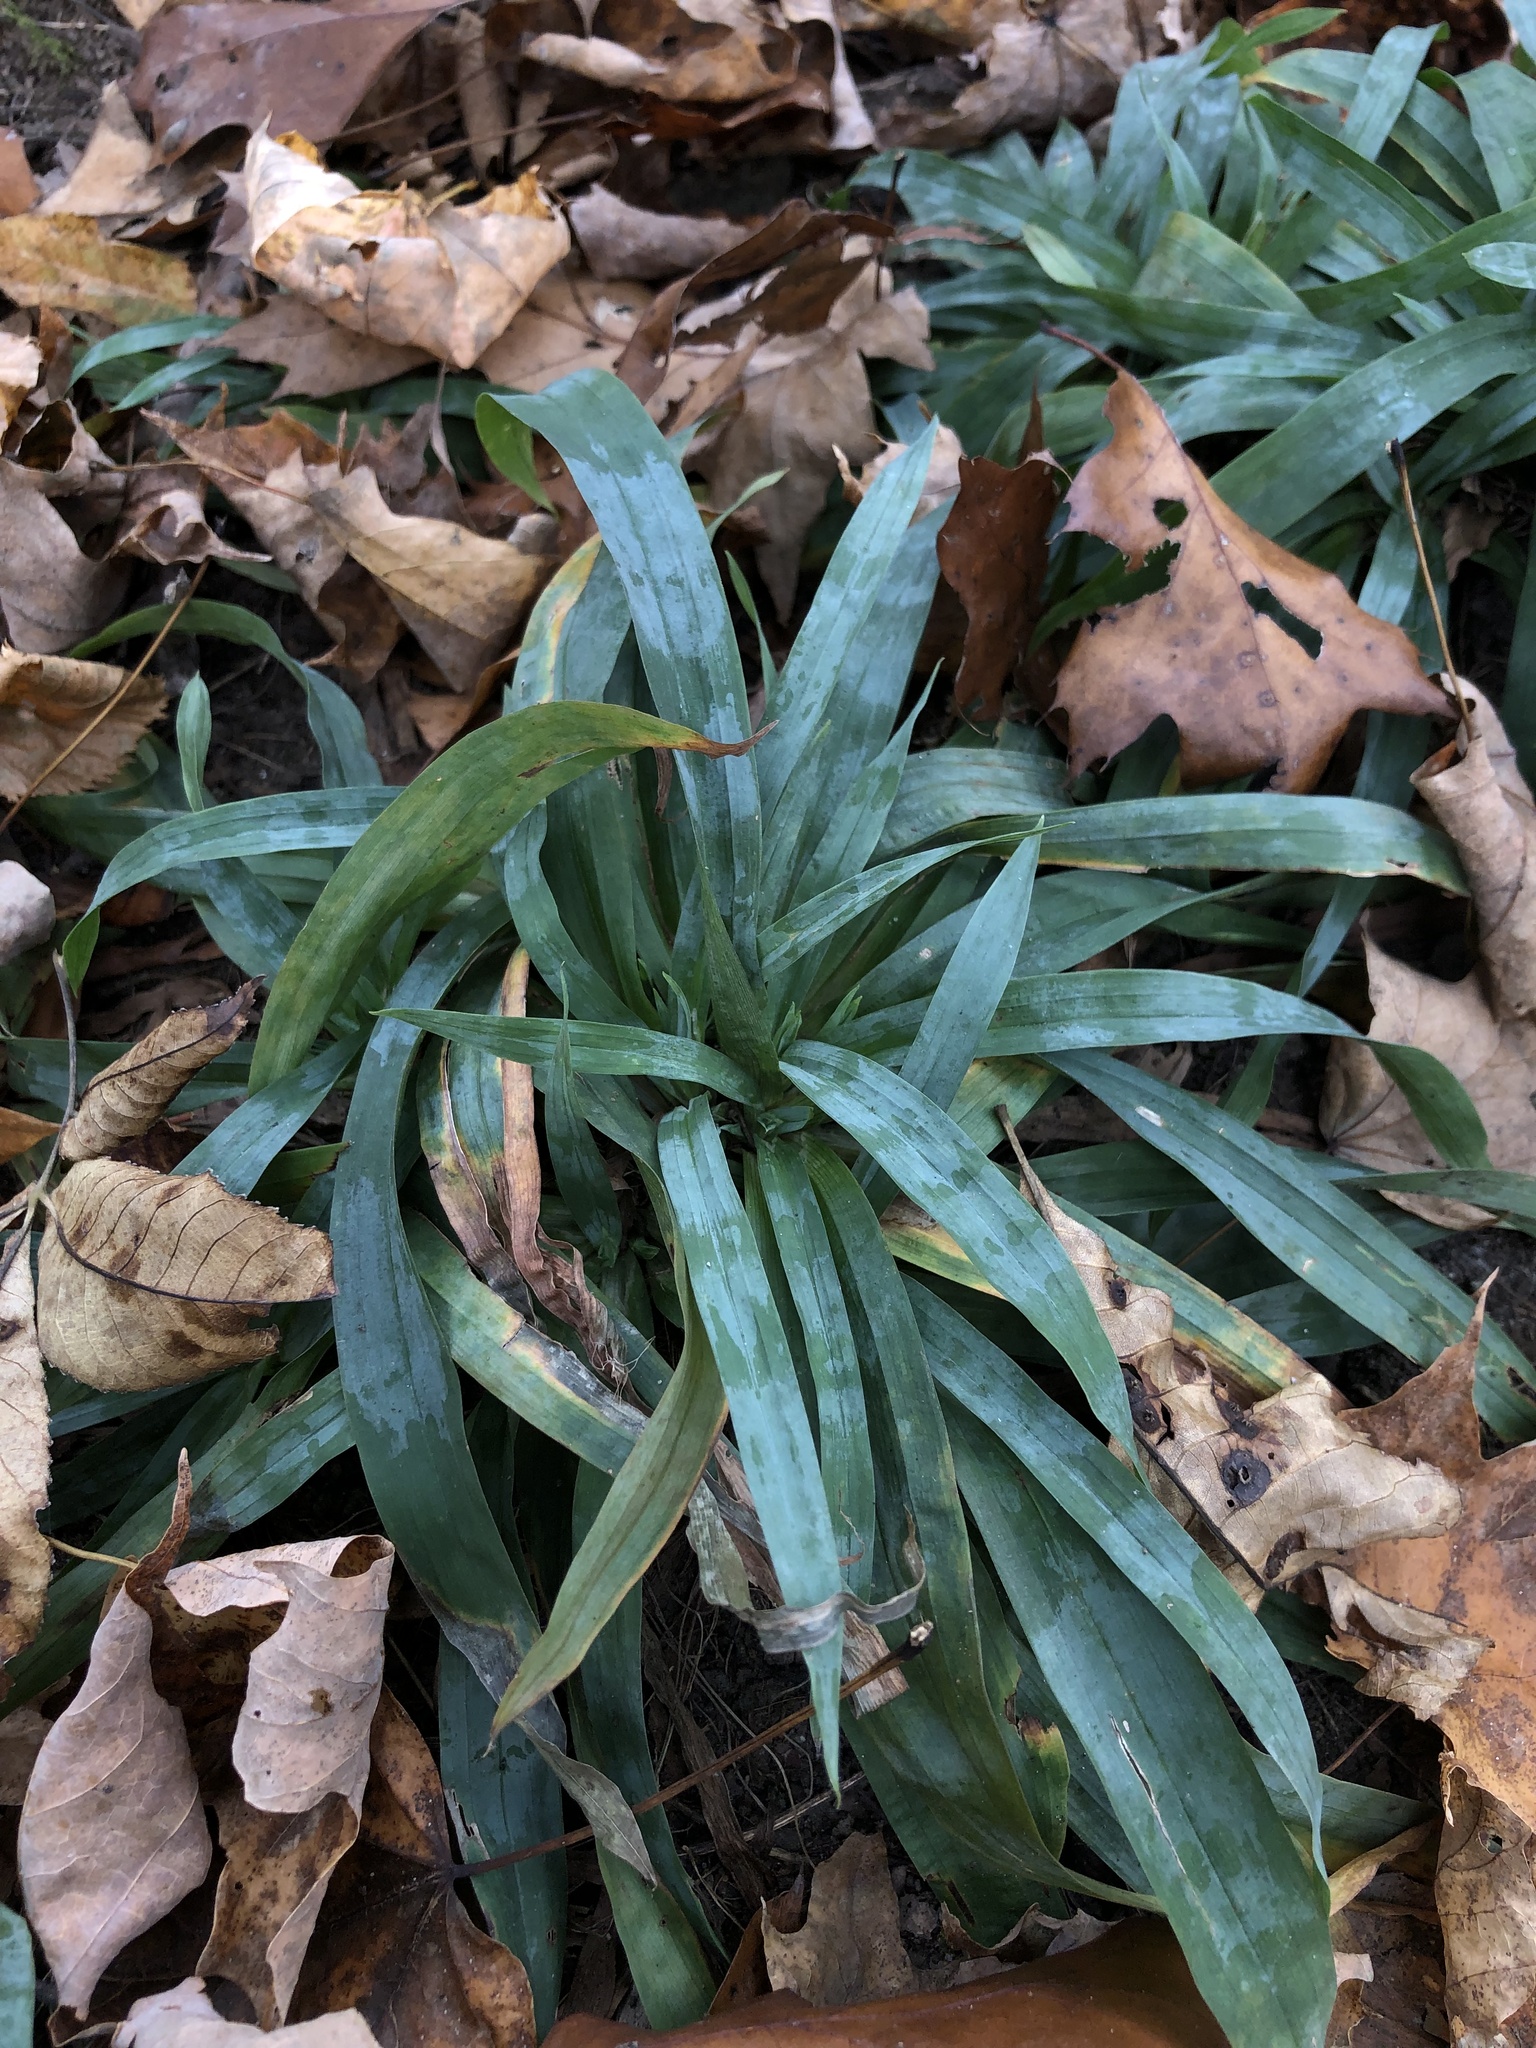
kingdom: Plantae
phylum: Tracheophyta
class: Liliopsida
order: Poales
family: Cyperaceae
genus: Carex
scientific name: Carex platyphylla
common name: Broad-leaved sedge
